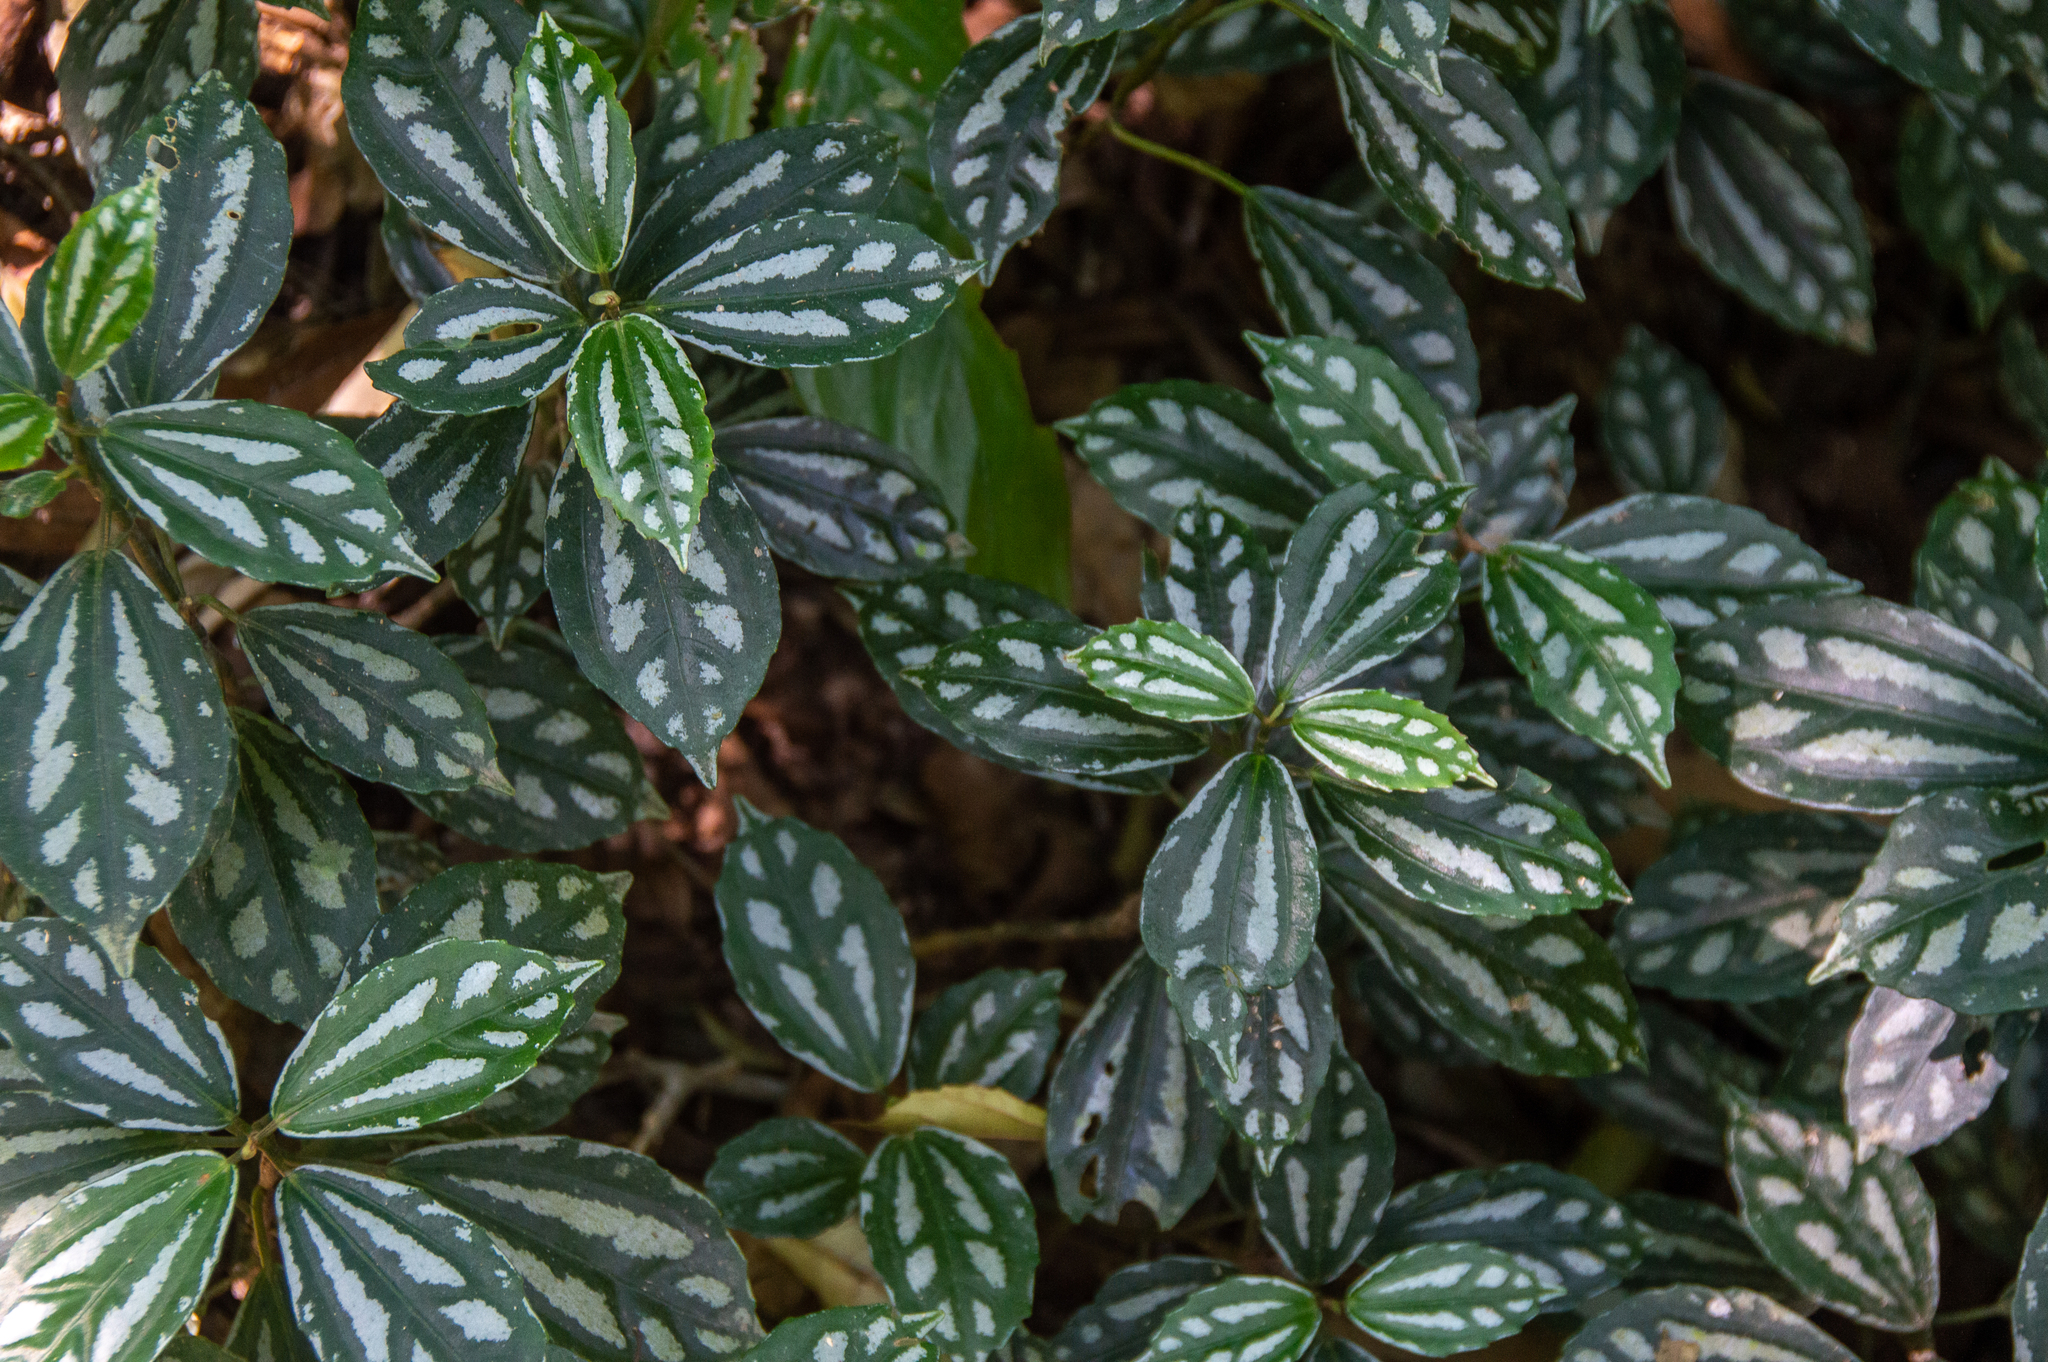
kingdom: Plantae
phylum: Tracheophyta
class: Magnoliopsida
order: Rosales
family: Urticaceae
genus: Pilea
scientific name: Pilea cadierei
